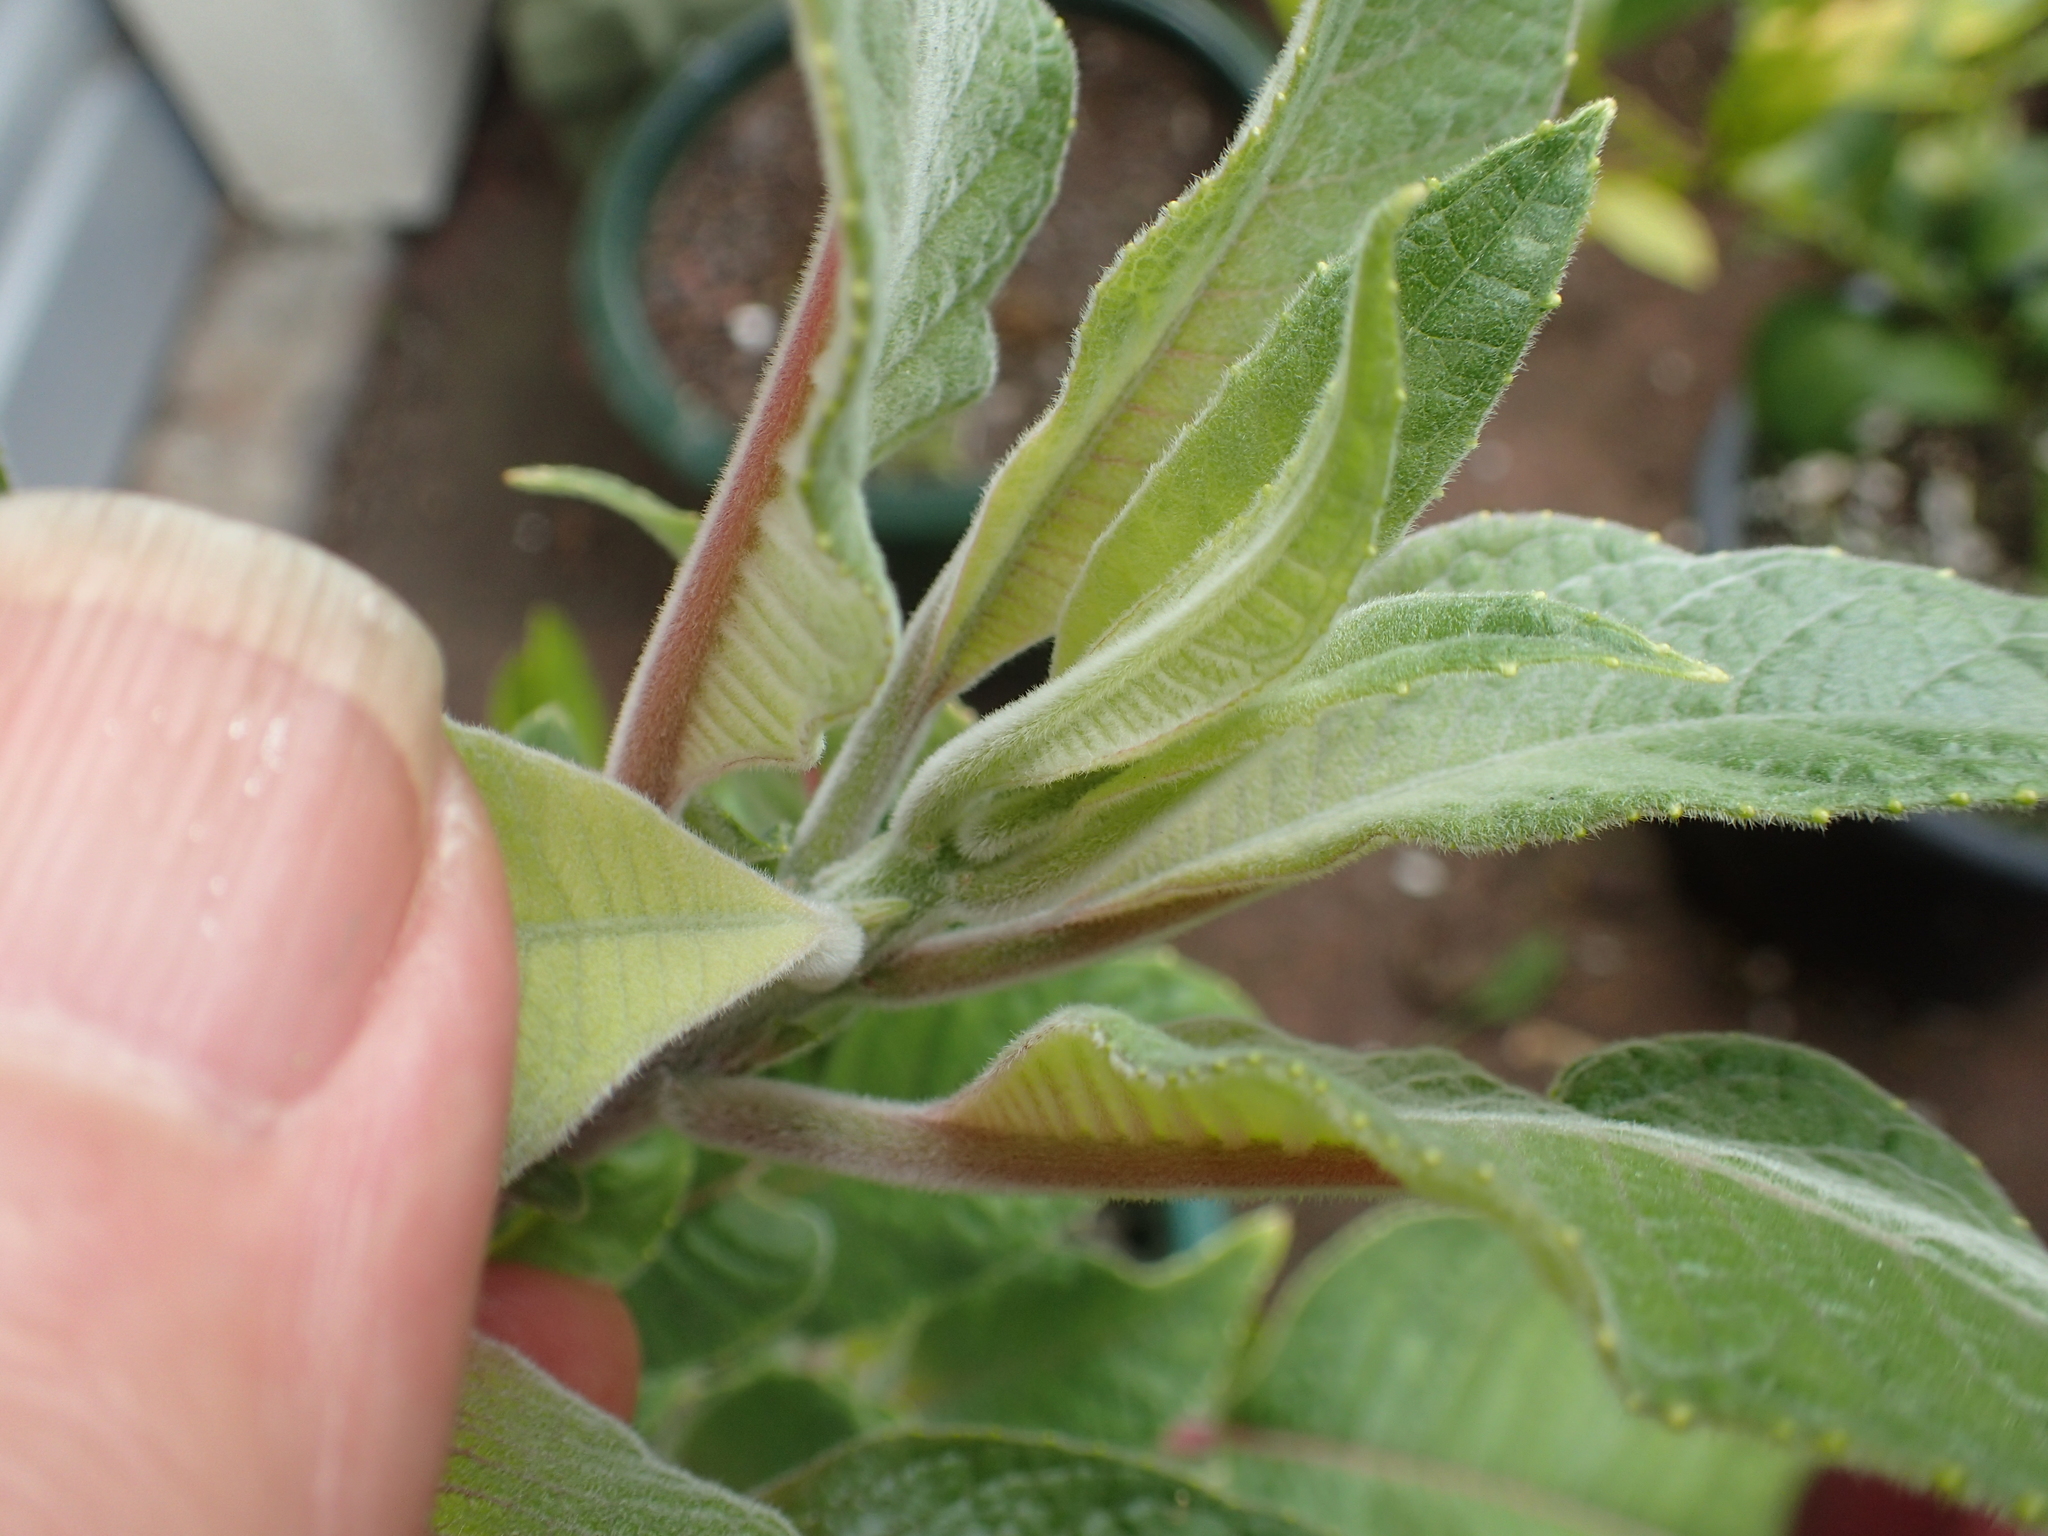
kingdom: Plantae
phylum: Tracheophyta
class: Magnoliopsida
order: Myrtales
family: Onagraceae
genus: Fuchsia
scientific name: Fuchsia boliviana
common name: Bolivian fuchsia
